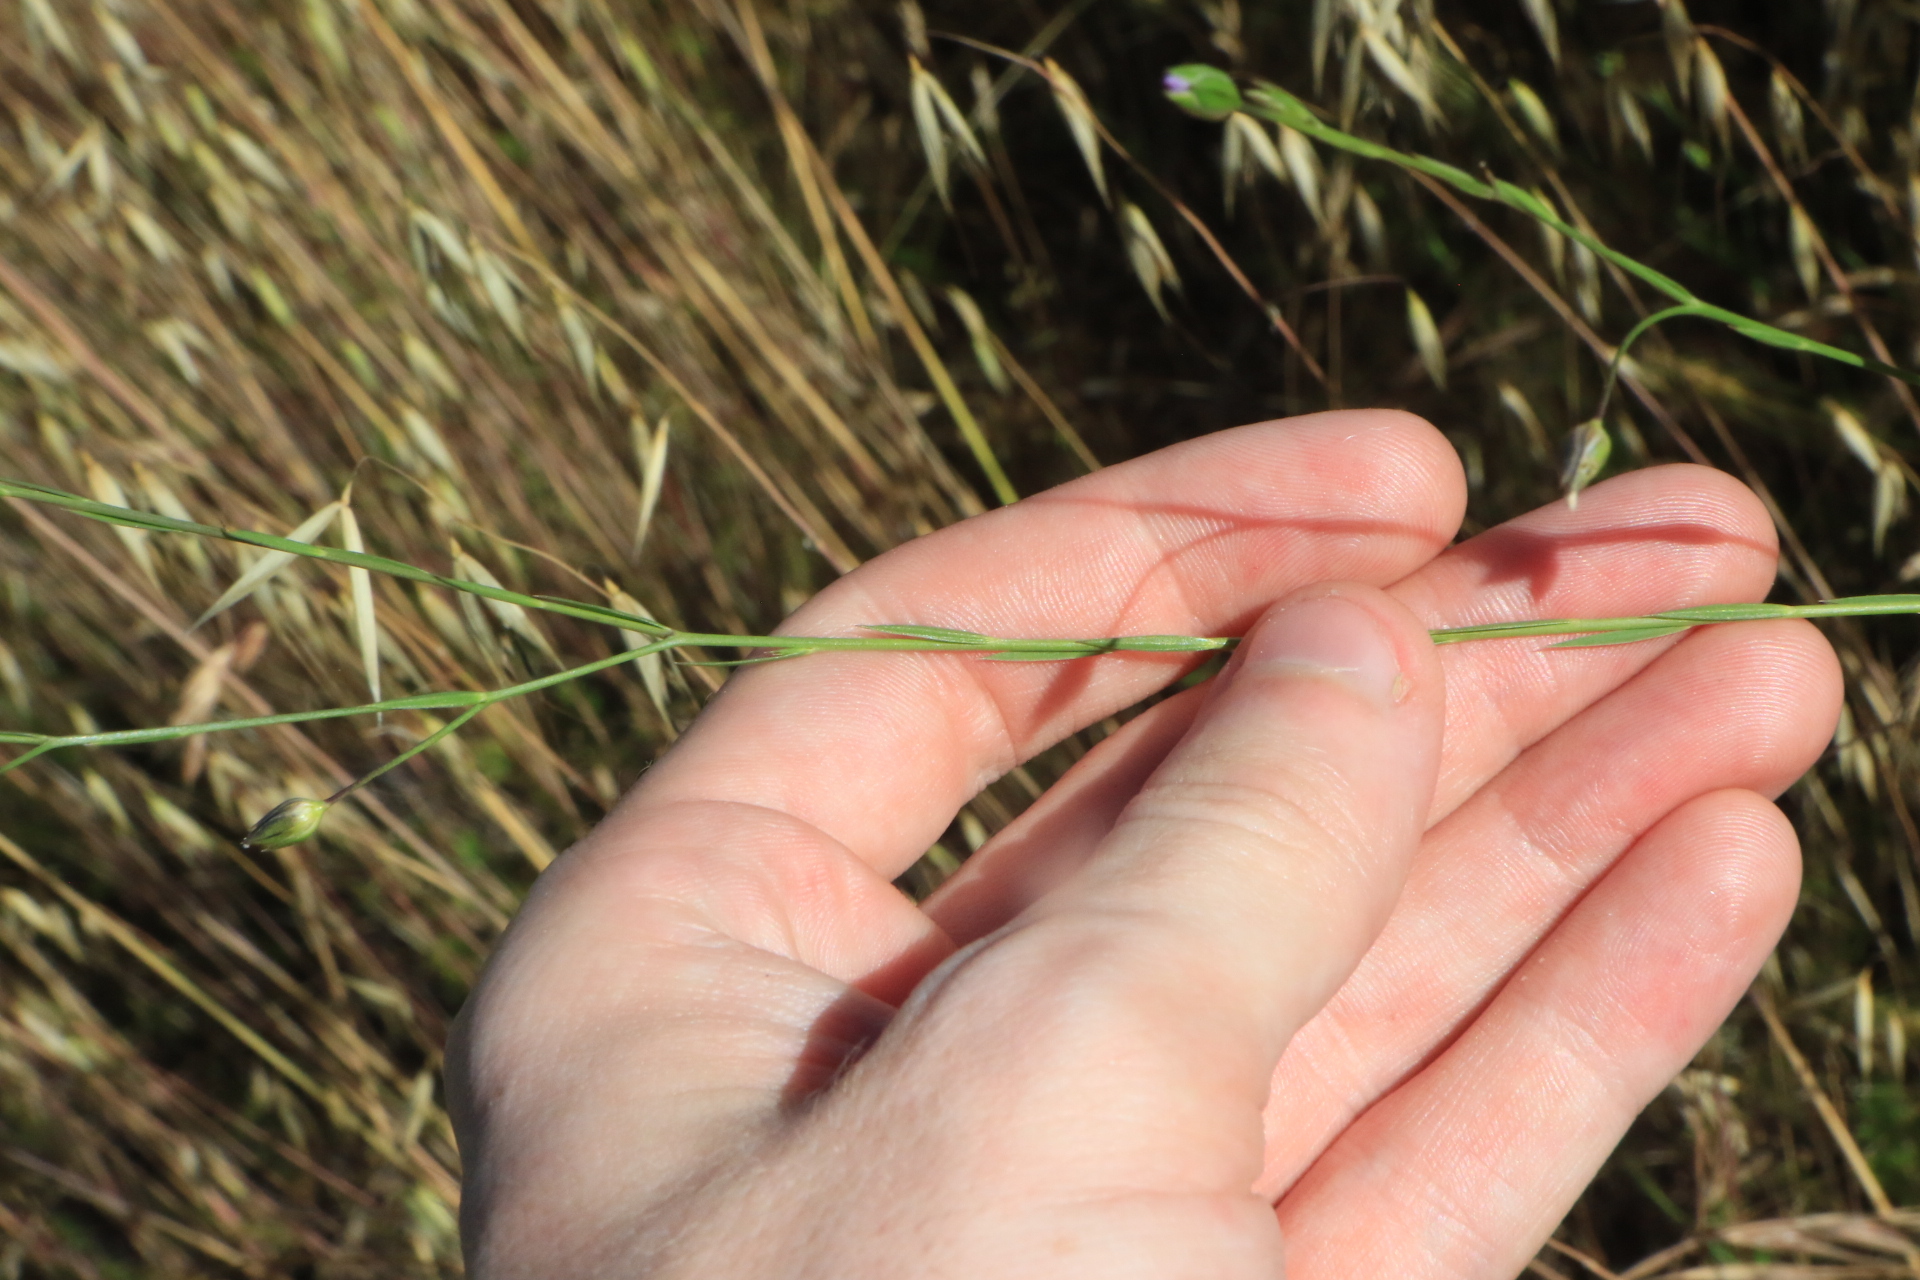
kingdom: Plantae
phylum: Tracheophyta
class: Magnoliopsida
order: Malpighiales
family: Linaceae
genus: Linum
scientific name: Linum bienne
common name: Pale flax
